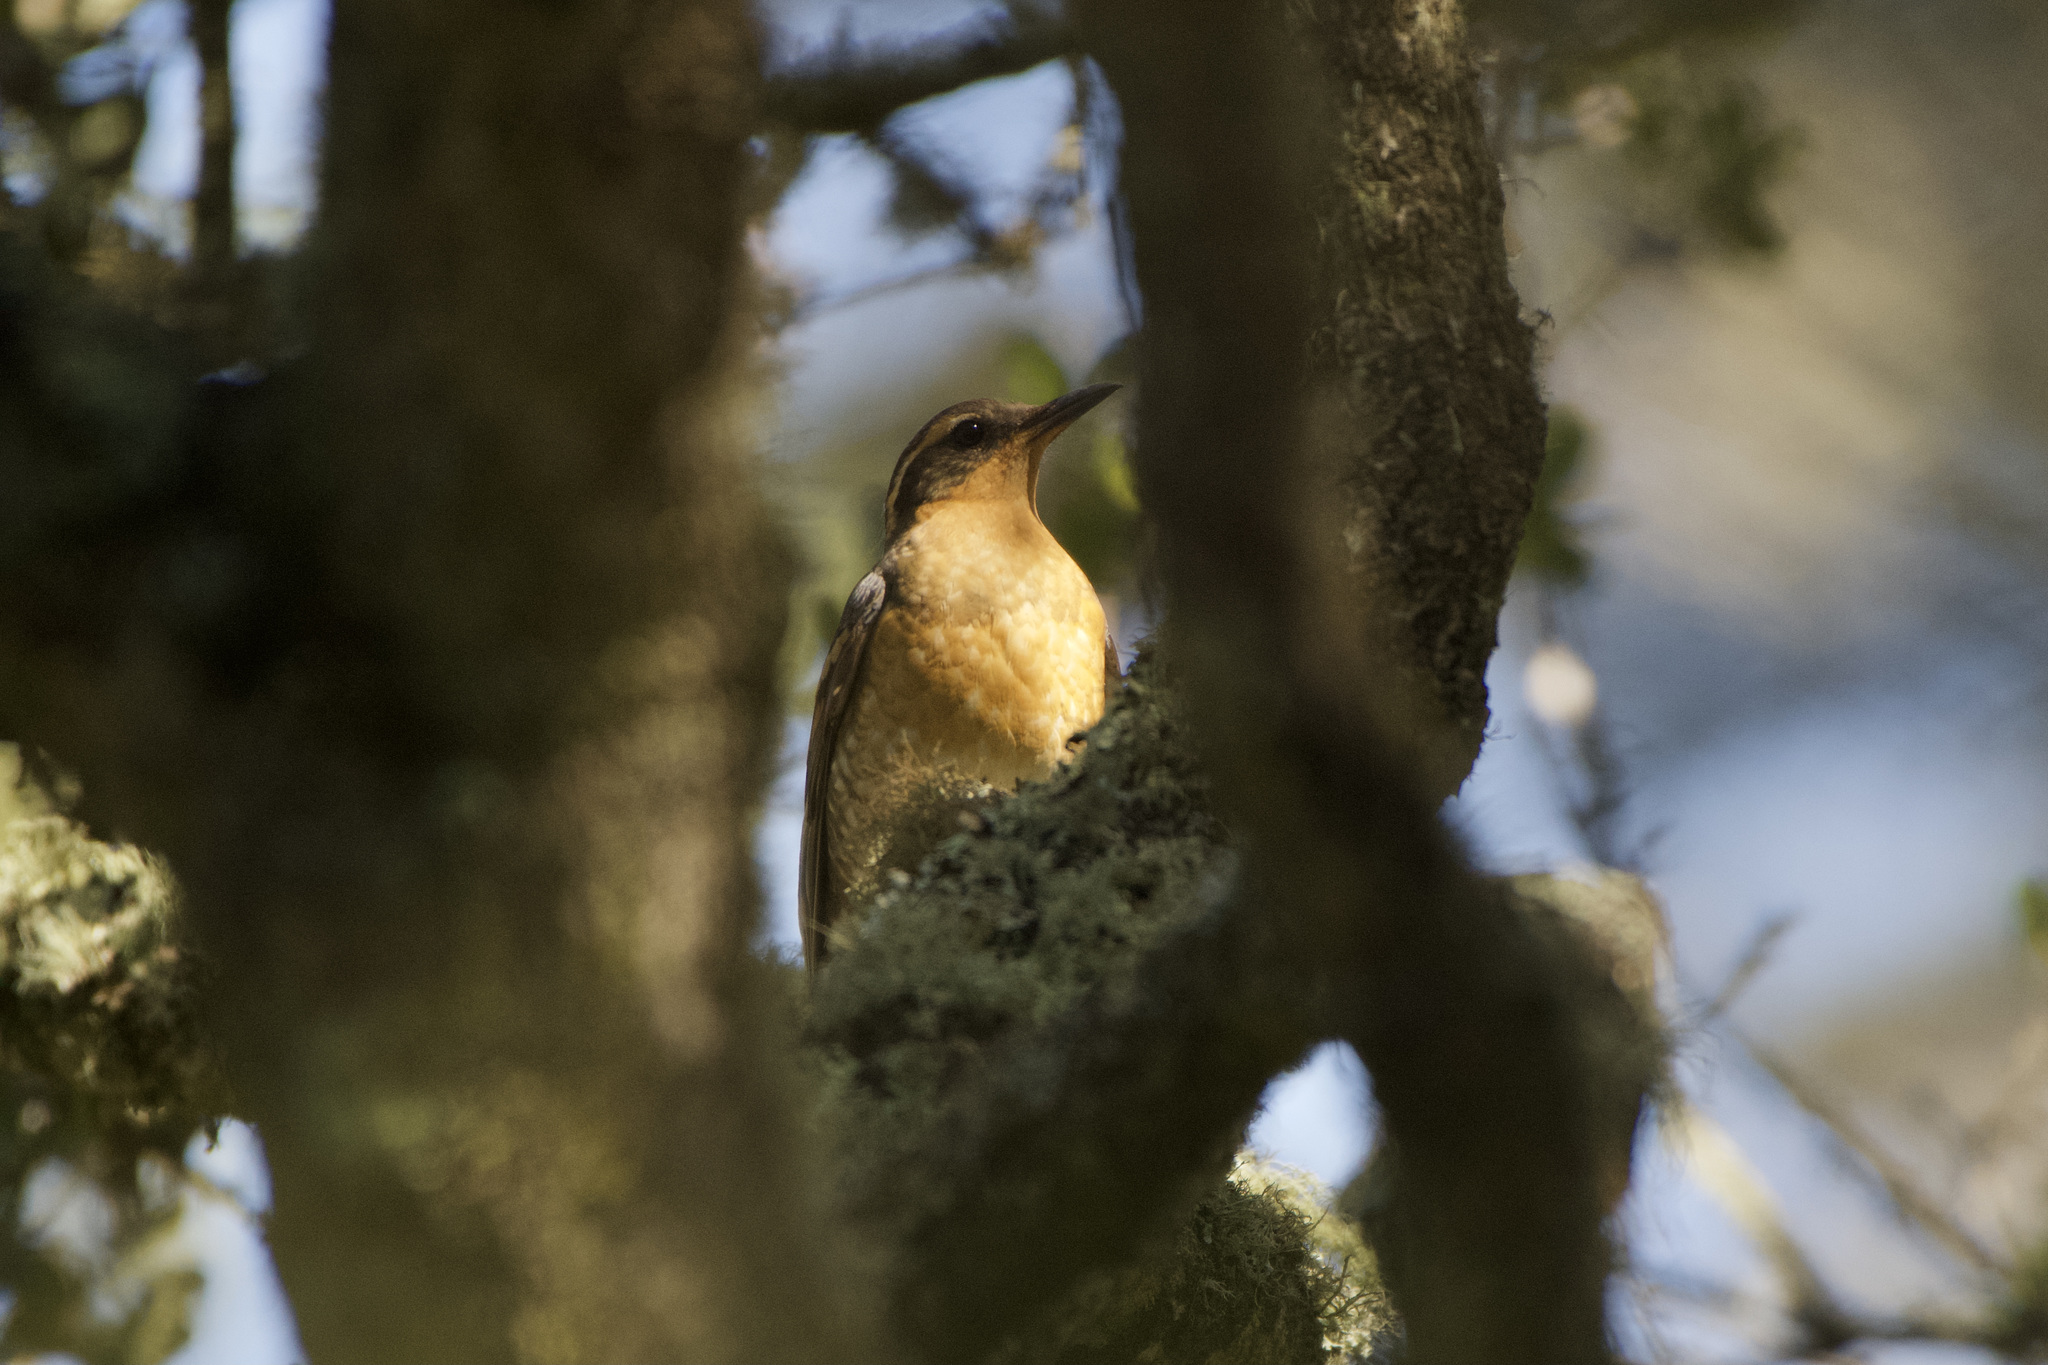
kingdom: Animalia
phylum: Chordata
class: Aves
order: Passeriformes
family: Turdidae
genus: Ixoreus
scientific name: Ixoreus naevius
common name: Varied thrush
